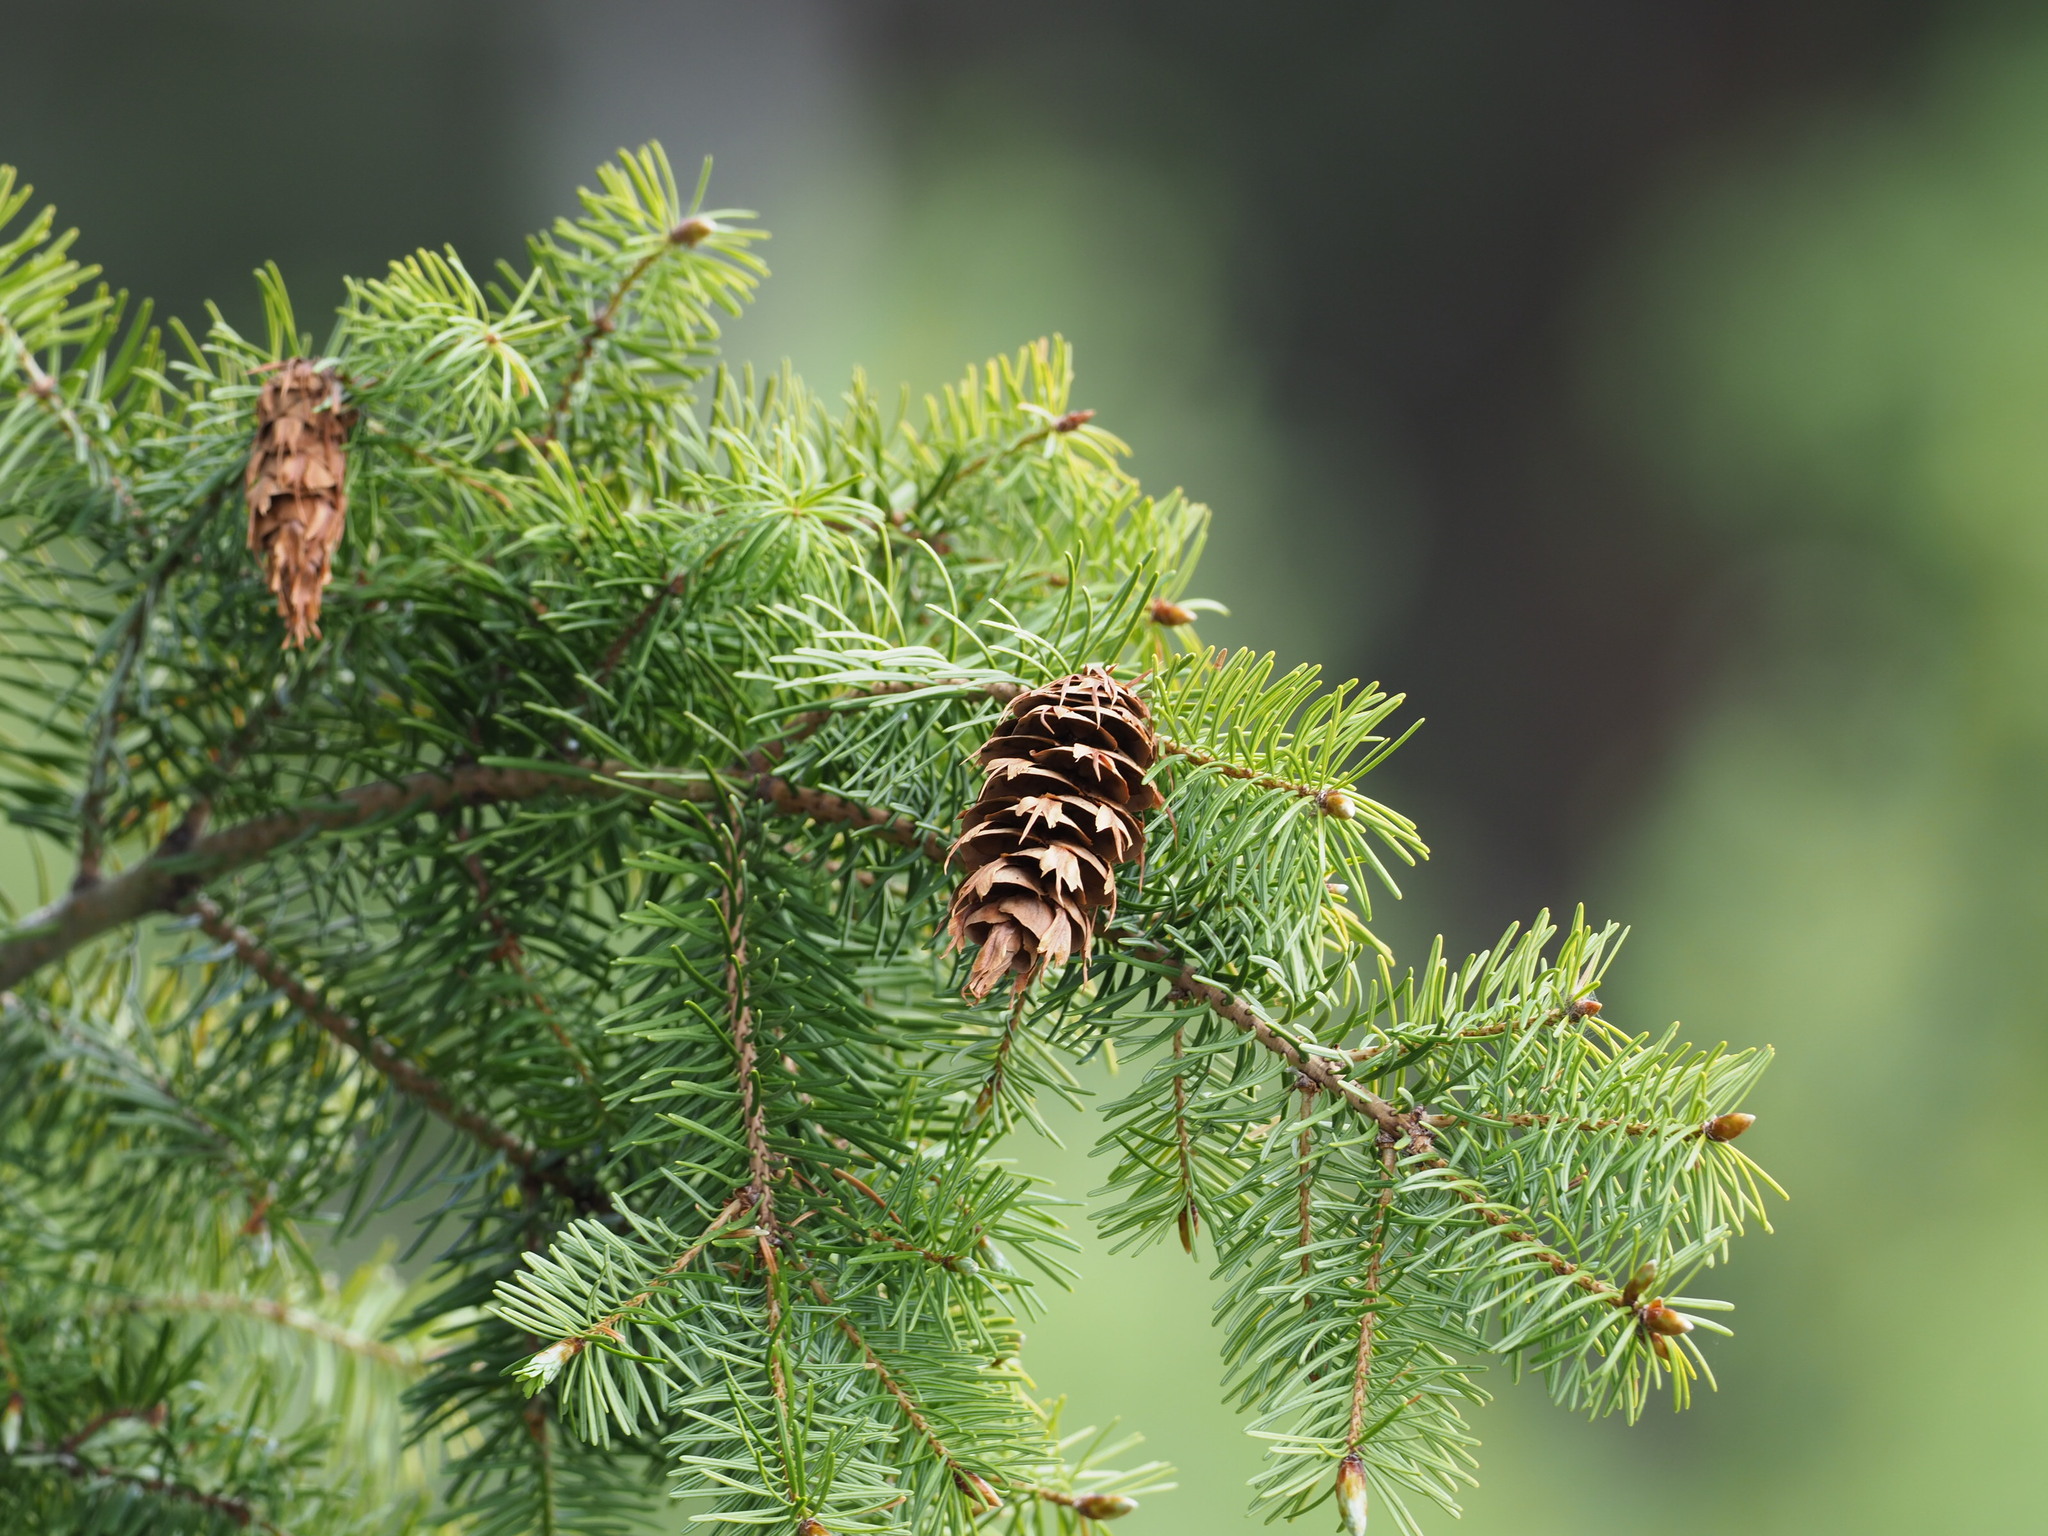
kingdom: Plantae
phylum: Tracheophyta
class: Pinopsida
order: Pinales
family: Pinaceae
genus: Pseudotsuga
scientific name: Pseudotsuga menziesii
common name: Douglas fir
